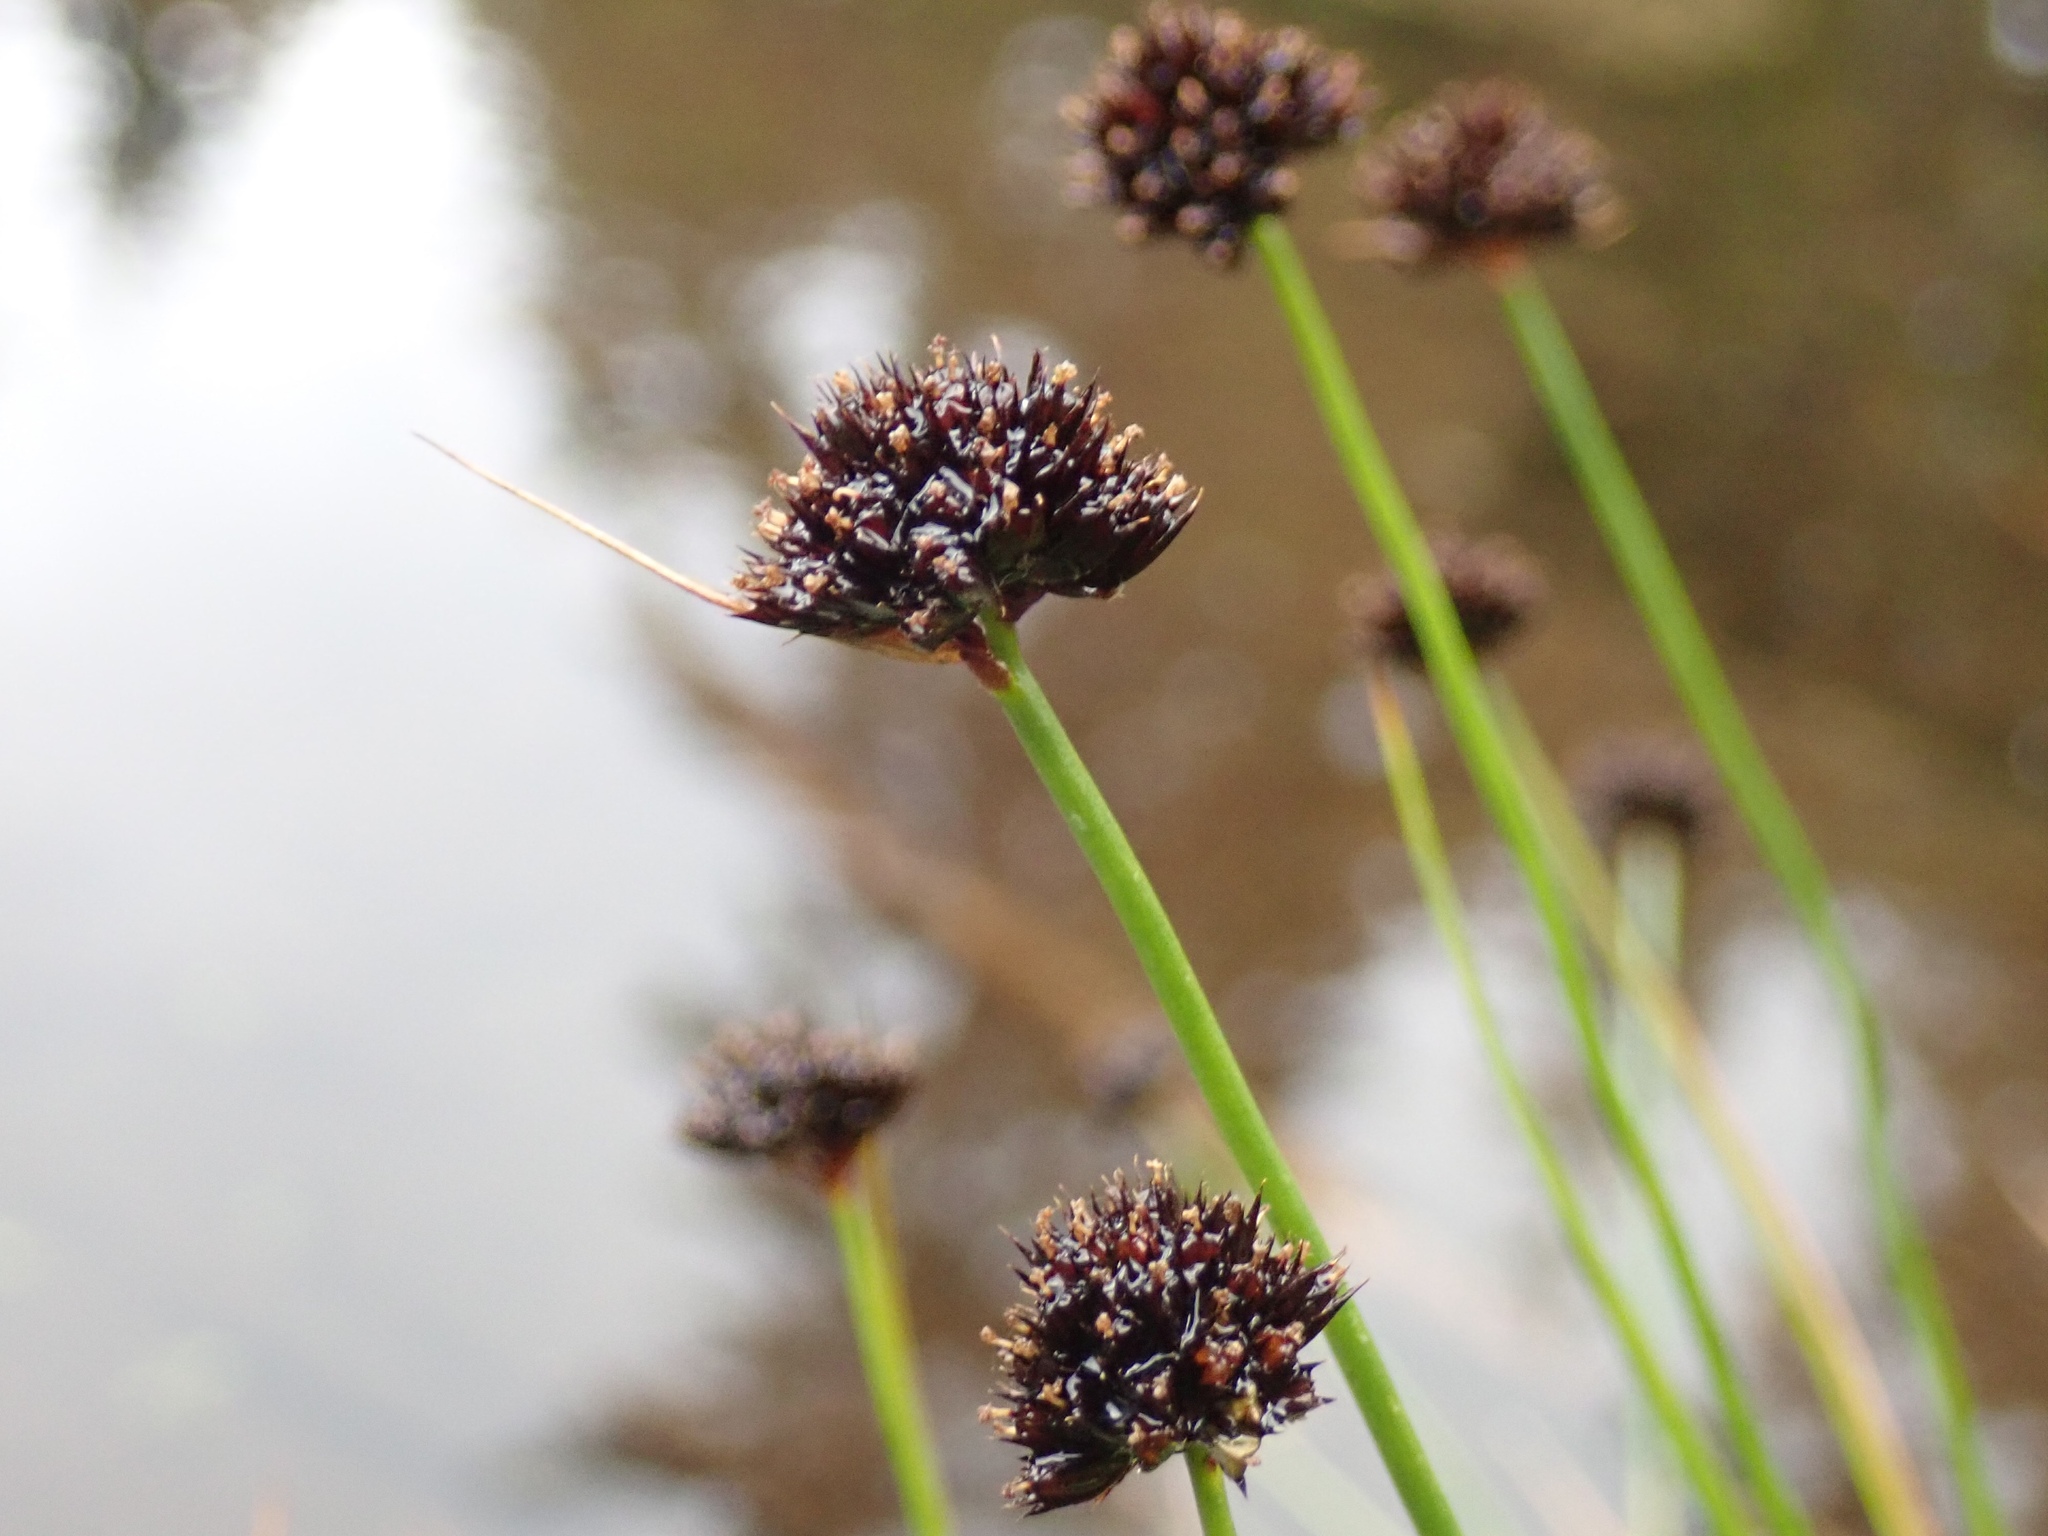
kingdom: Plantae
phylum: Tracheophyta
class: Liliopsida
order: Poales
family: Juncaceae
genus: Juncus
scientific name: Juncus mertensianus
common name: Merten's rush
